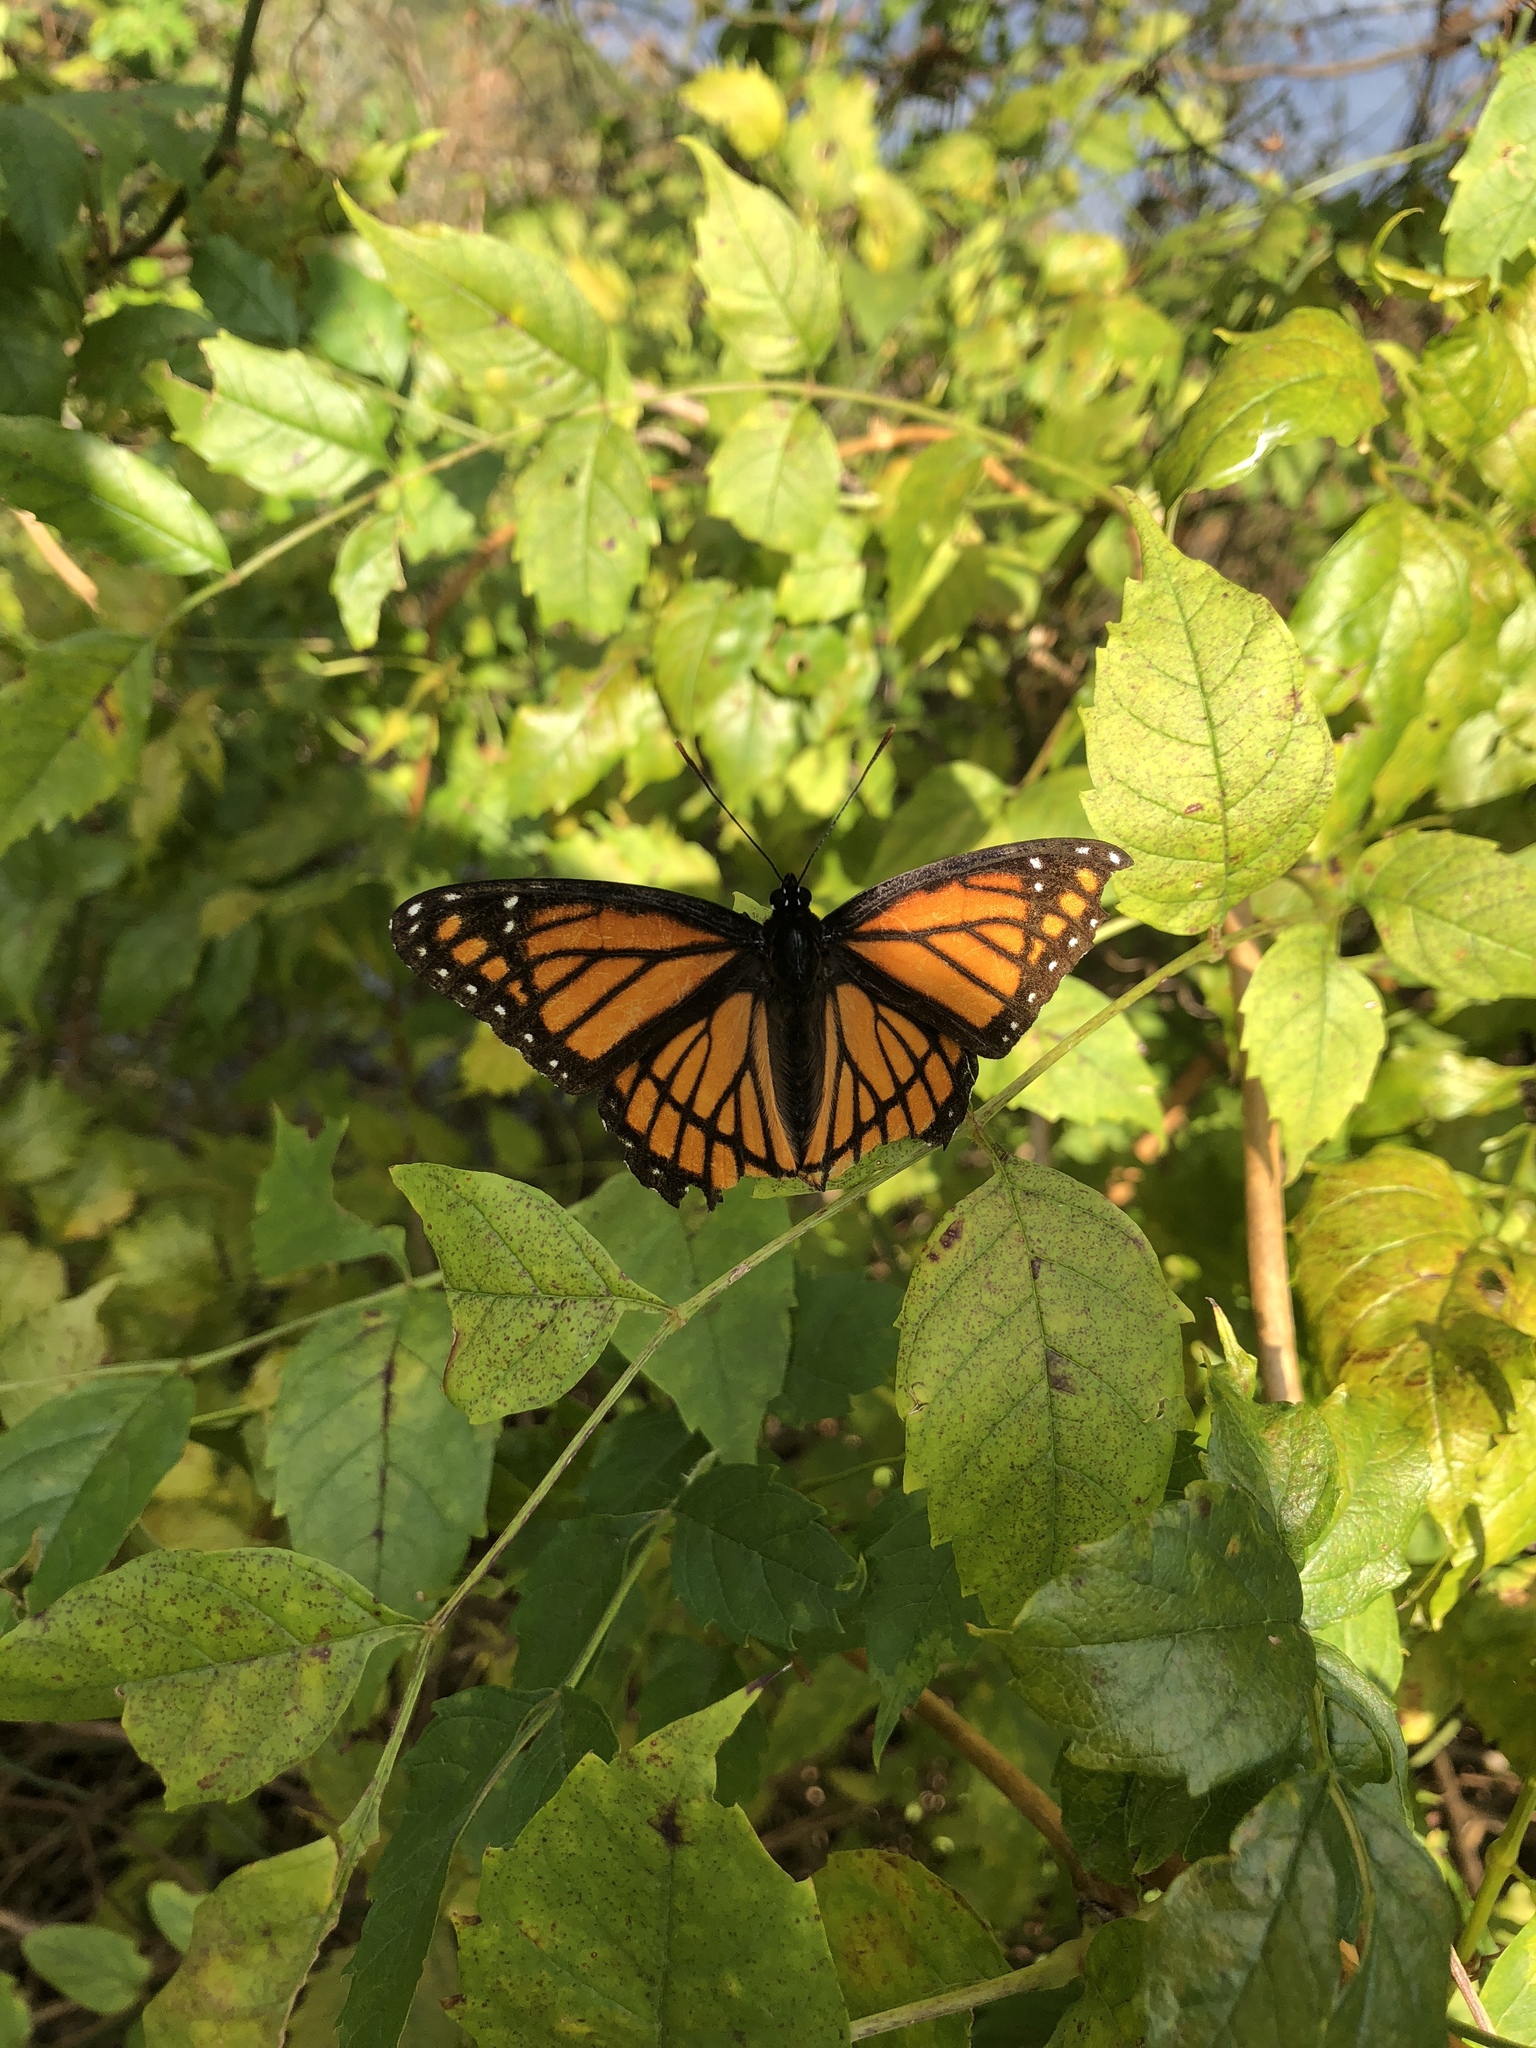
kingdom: Animalia
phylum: Arthropoda
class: Insecta
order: Lepidoptera
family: Nymphalidae
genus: Limenitis
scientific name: Limenitis archippus
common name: Viceroy
